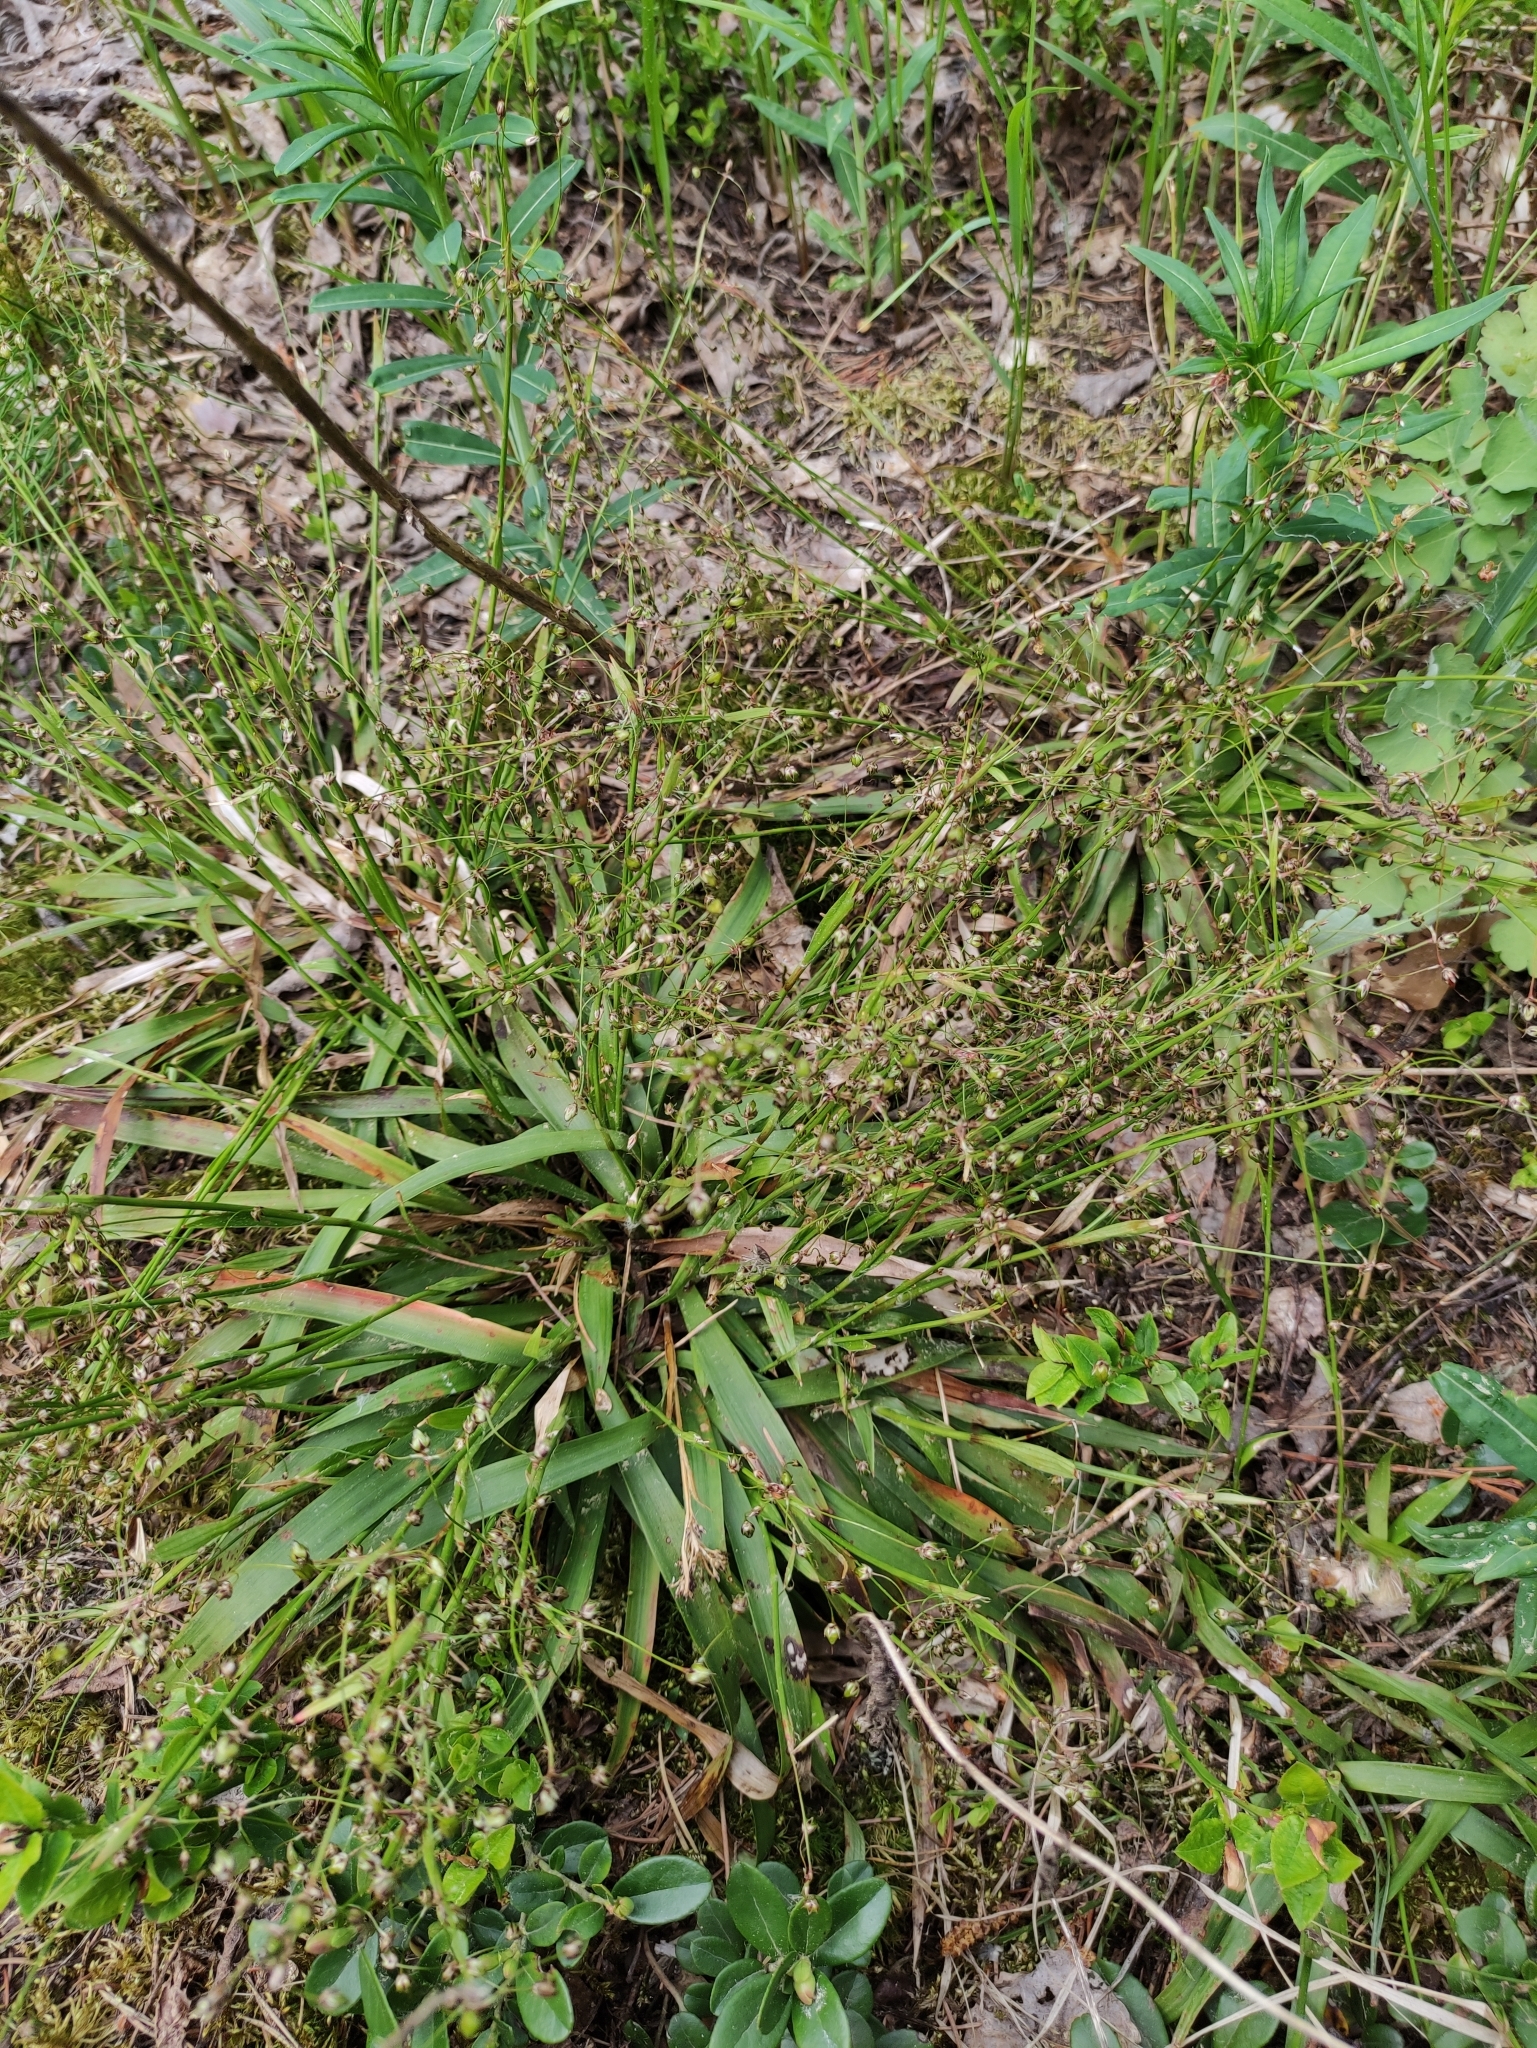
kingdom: Plantae
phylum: Tracheophyta
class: Liliopsida
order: Poales
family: Juncaceae
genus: Luzula
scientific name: Luzula pilosa
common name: Hairy wood-rush
